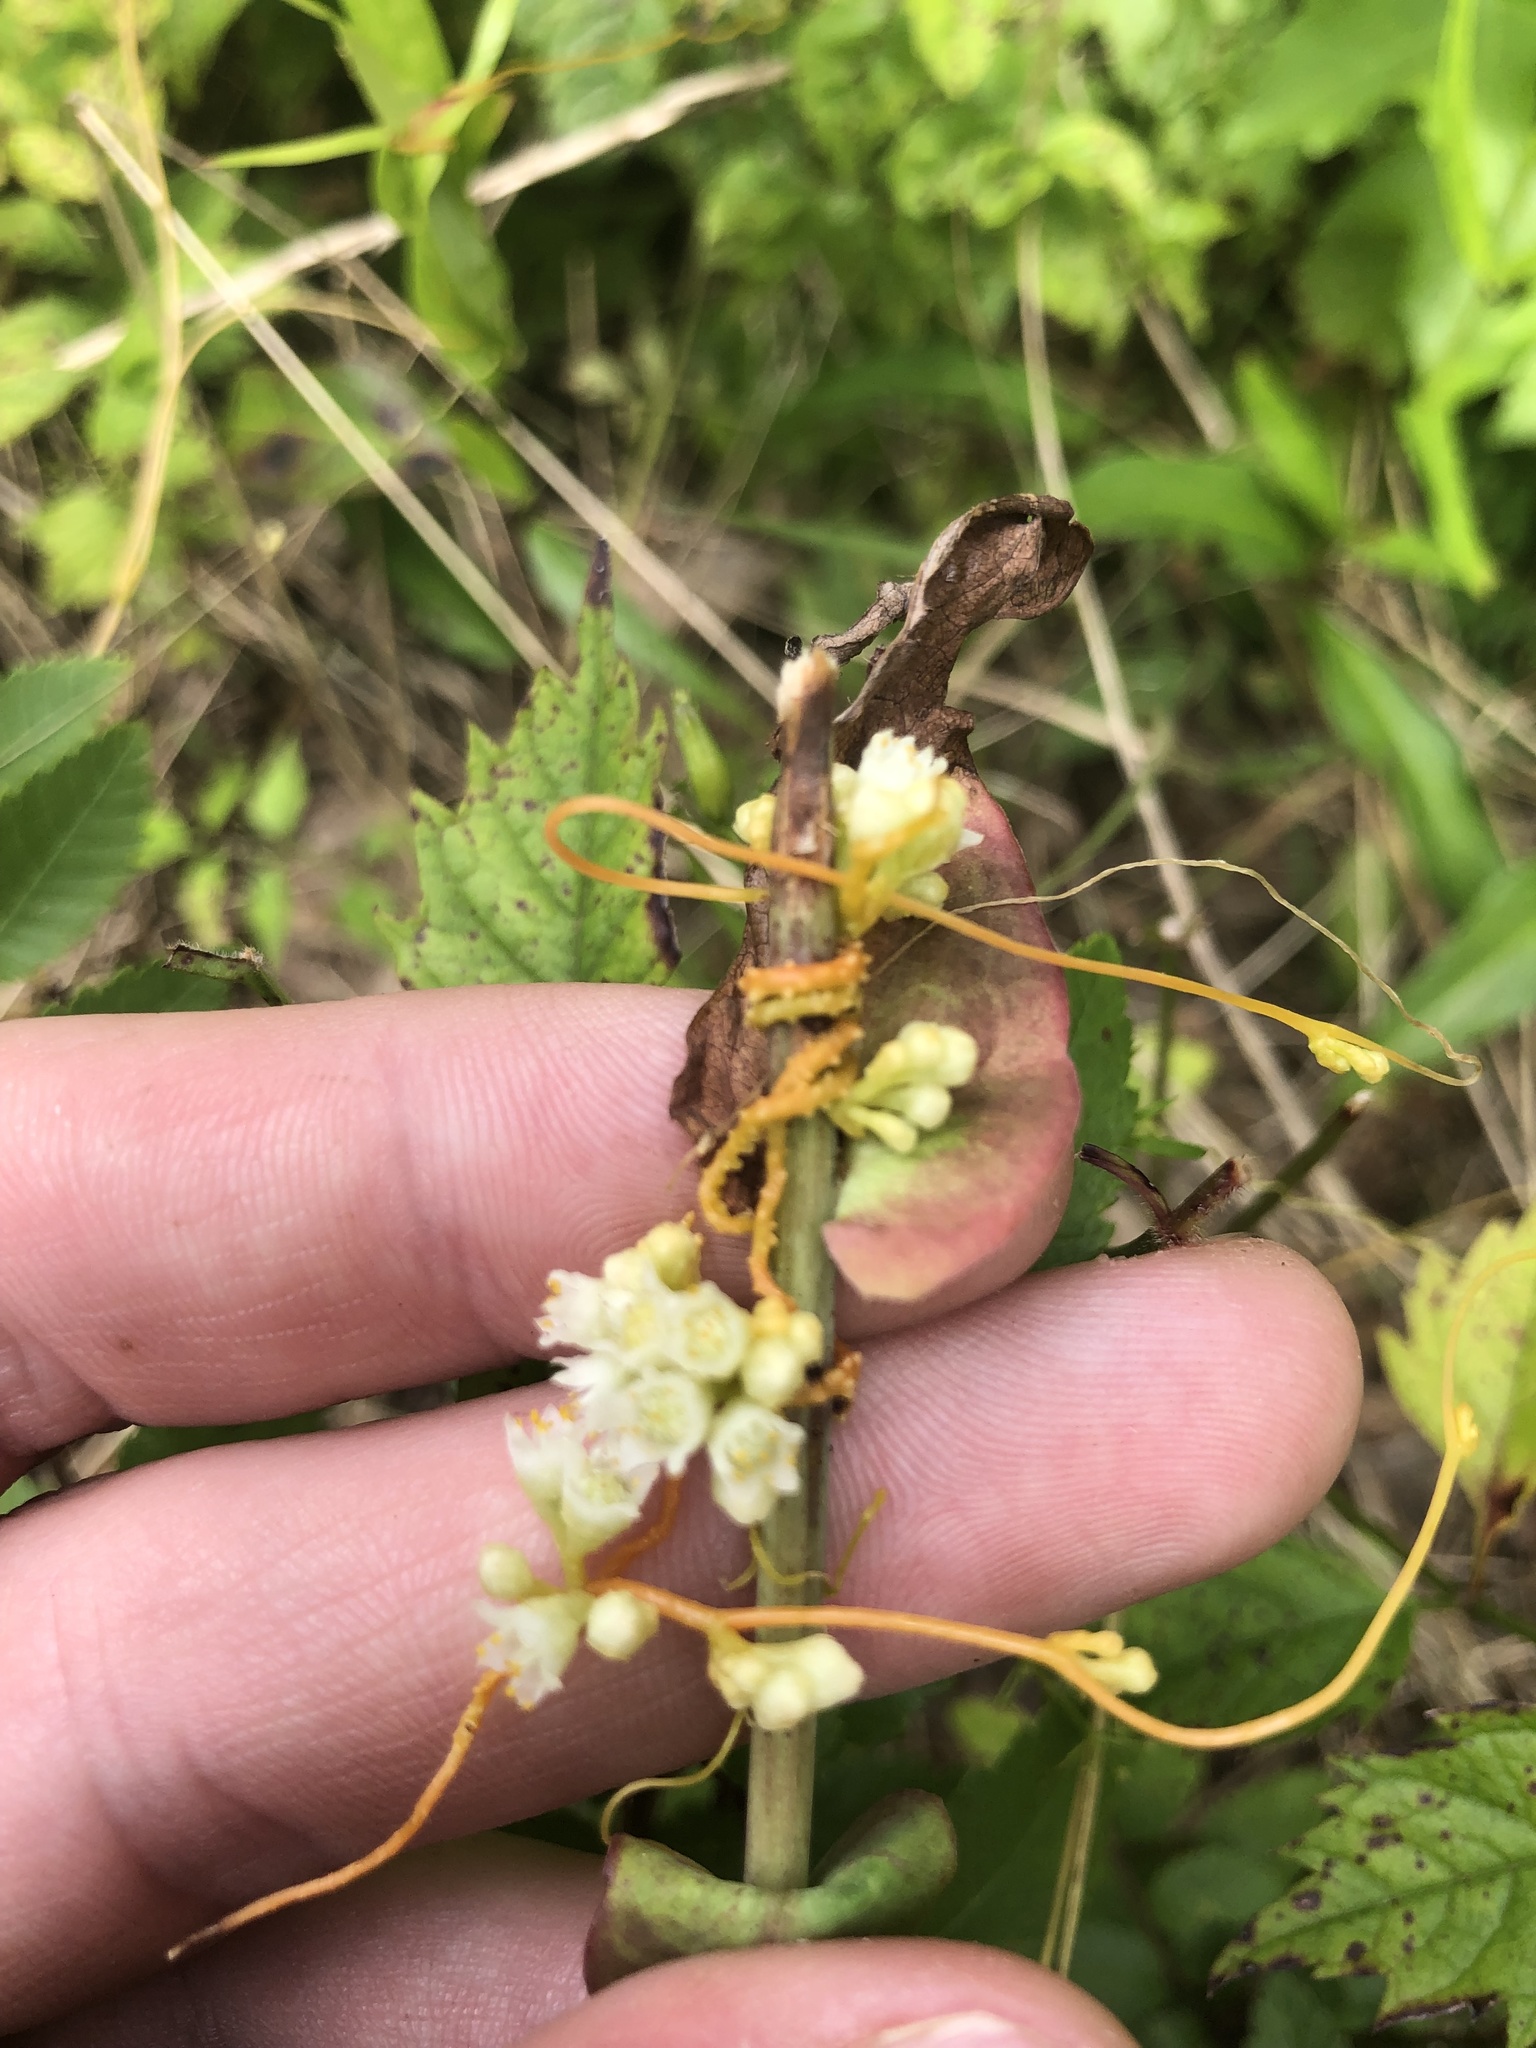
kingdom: Plantae
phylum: Tracheophyta
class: Magnoliopsida
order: Solanales
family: Convolvulaceae
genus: Cuscuta
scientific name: Cuscuta campestris
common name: Yellow dodder
